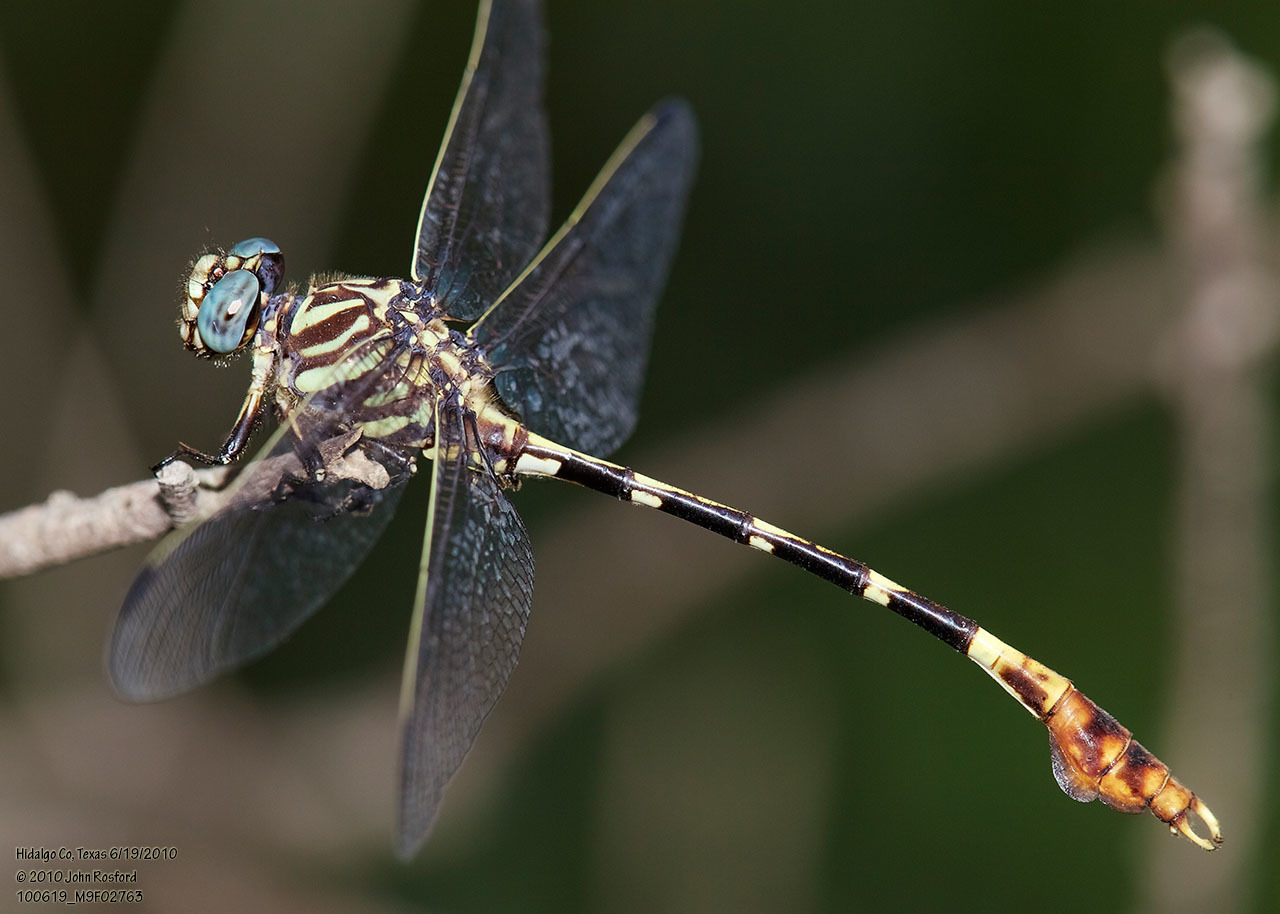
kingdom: Animalia
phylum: Arthropoda
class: Insecta
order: Odonata
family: Gomphidae
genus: Phyllogomphoides
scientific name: Phyllogomphoides albrighti
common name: Five-striped leaftail
